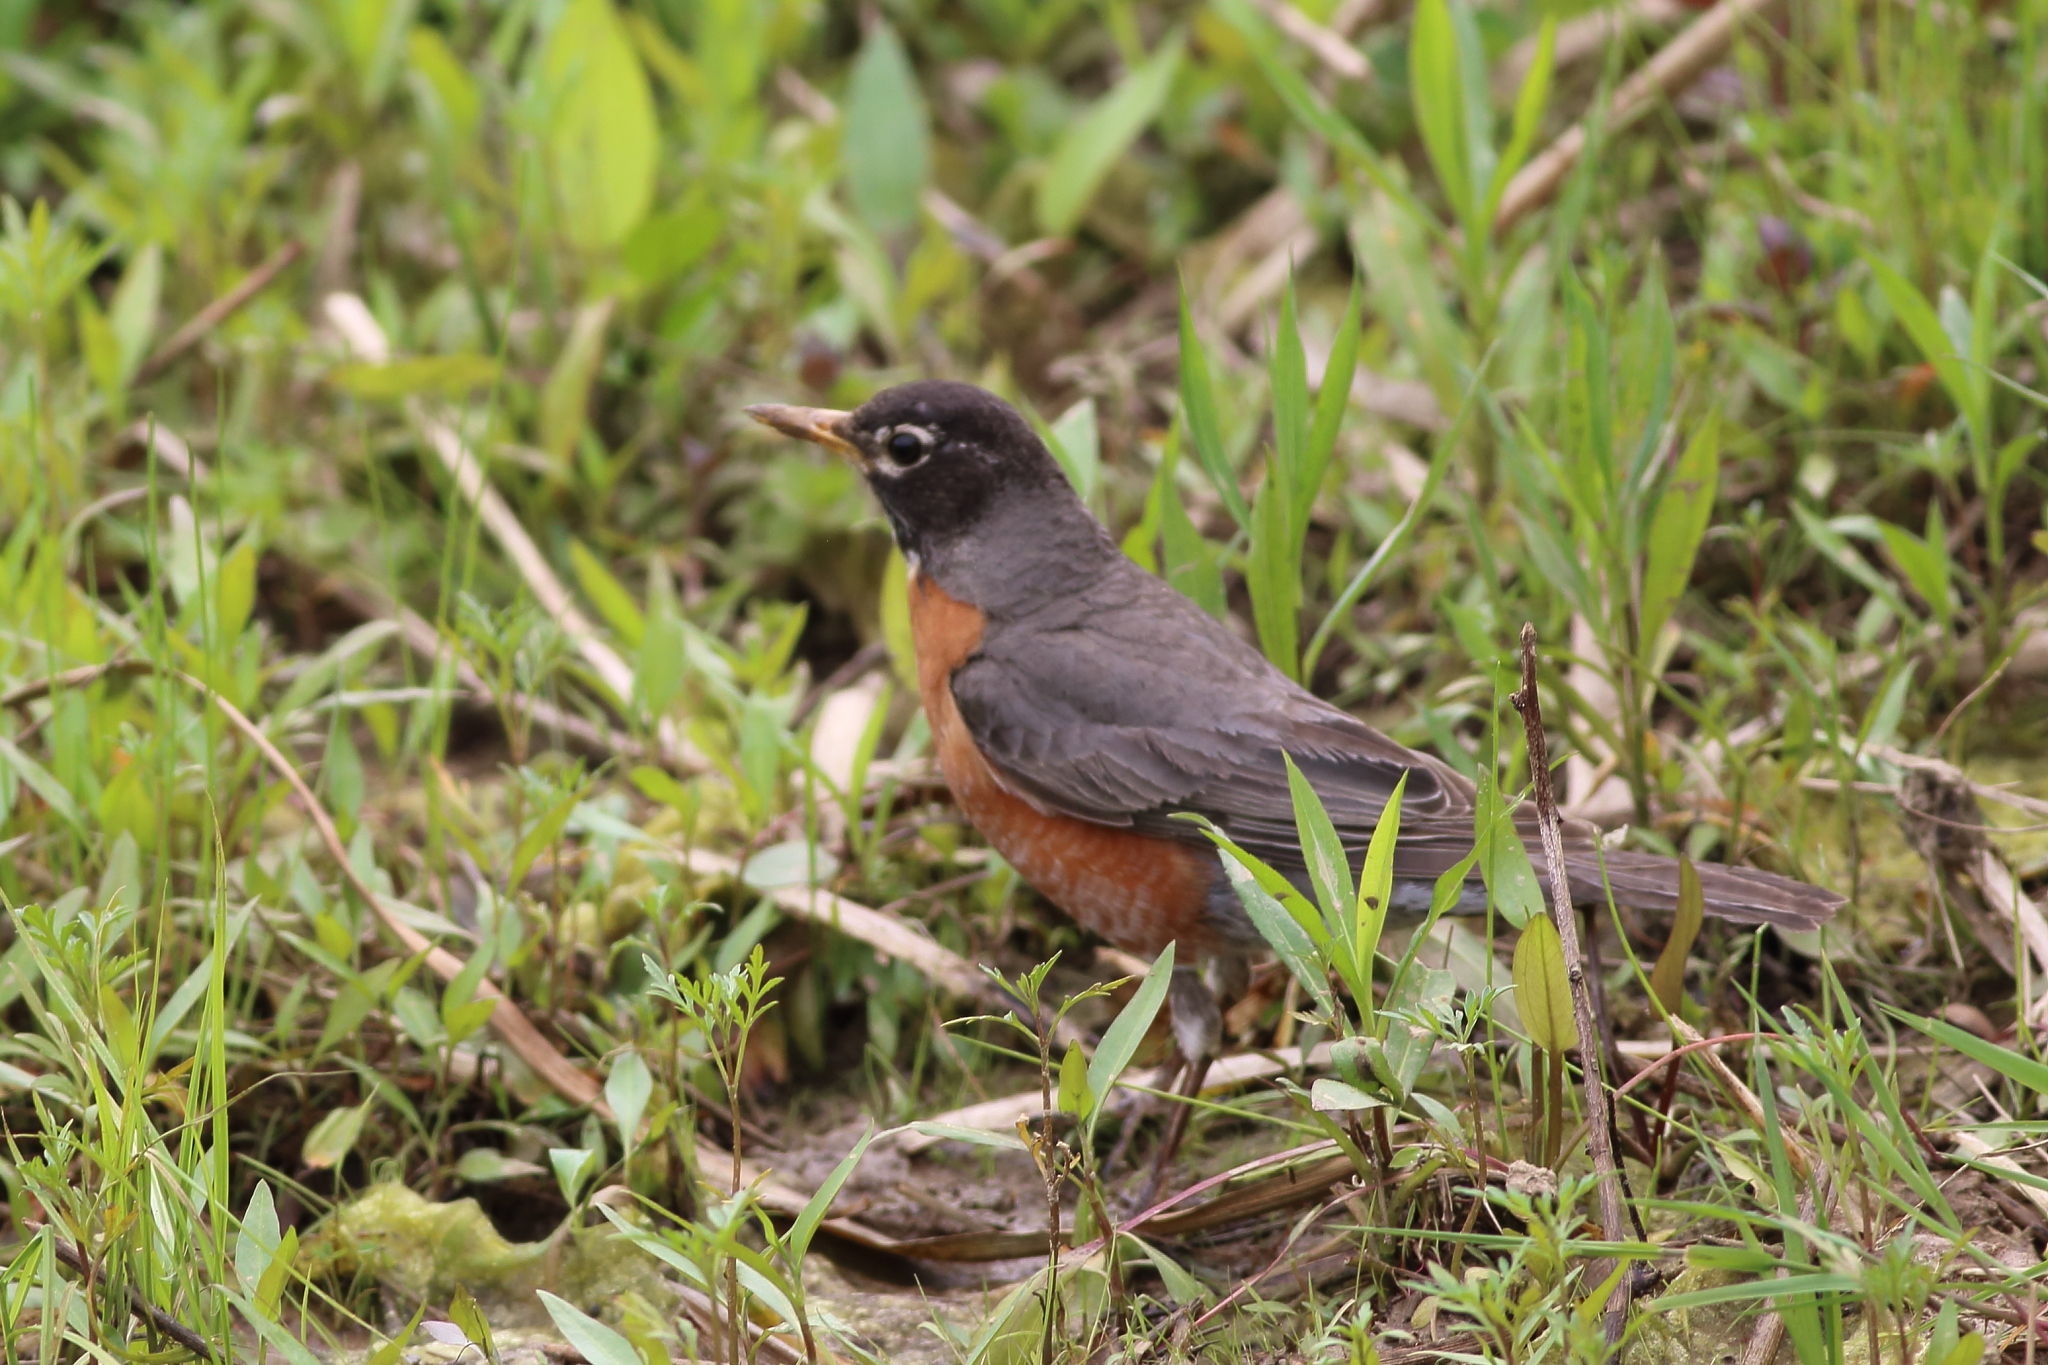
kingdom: Animalia
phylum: Chordata
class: Aves
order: Passeriformes
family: Turdidae
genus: Turdus
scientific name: Turdus migratorius
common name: American robin
